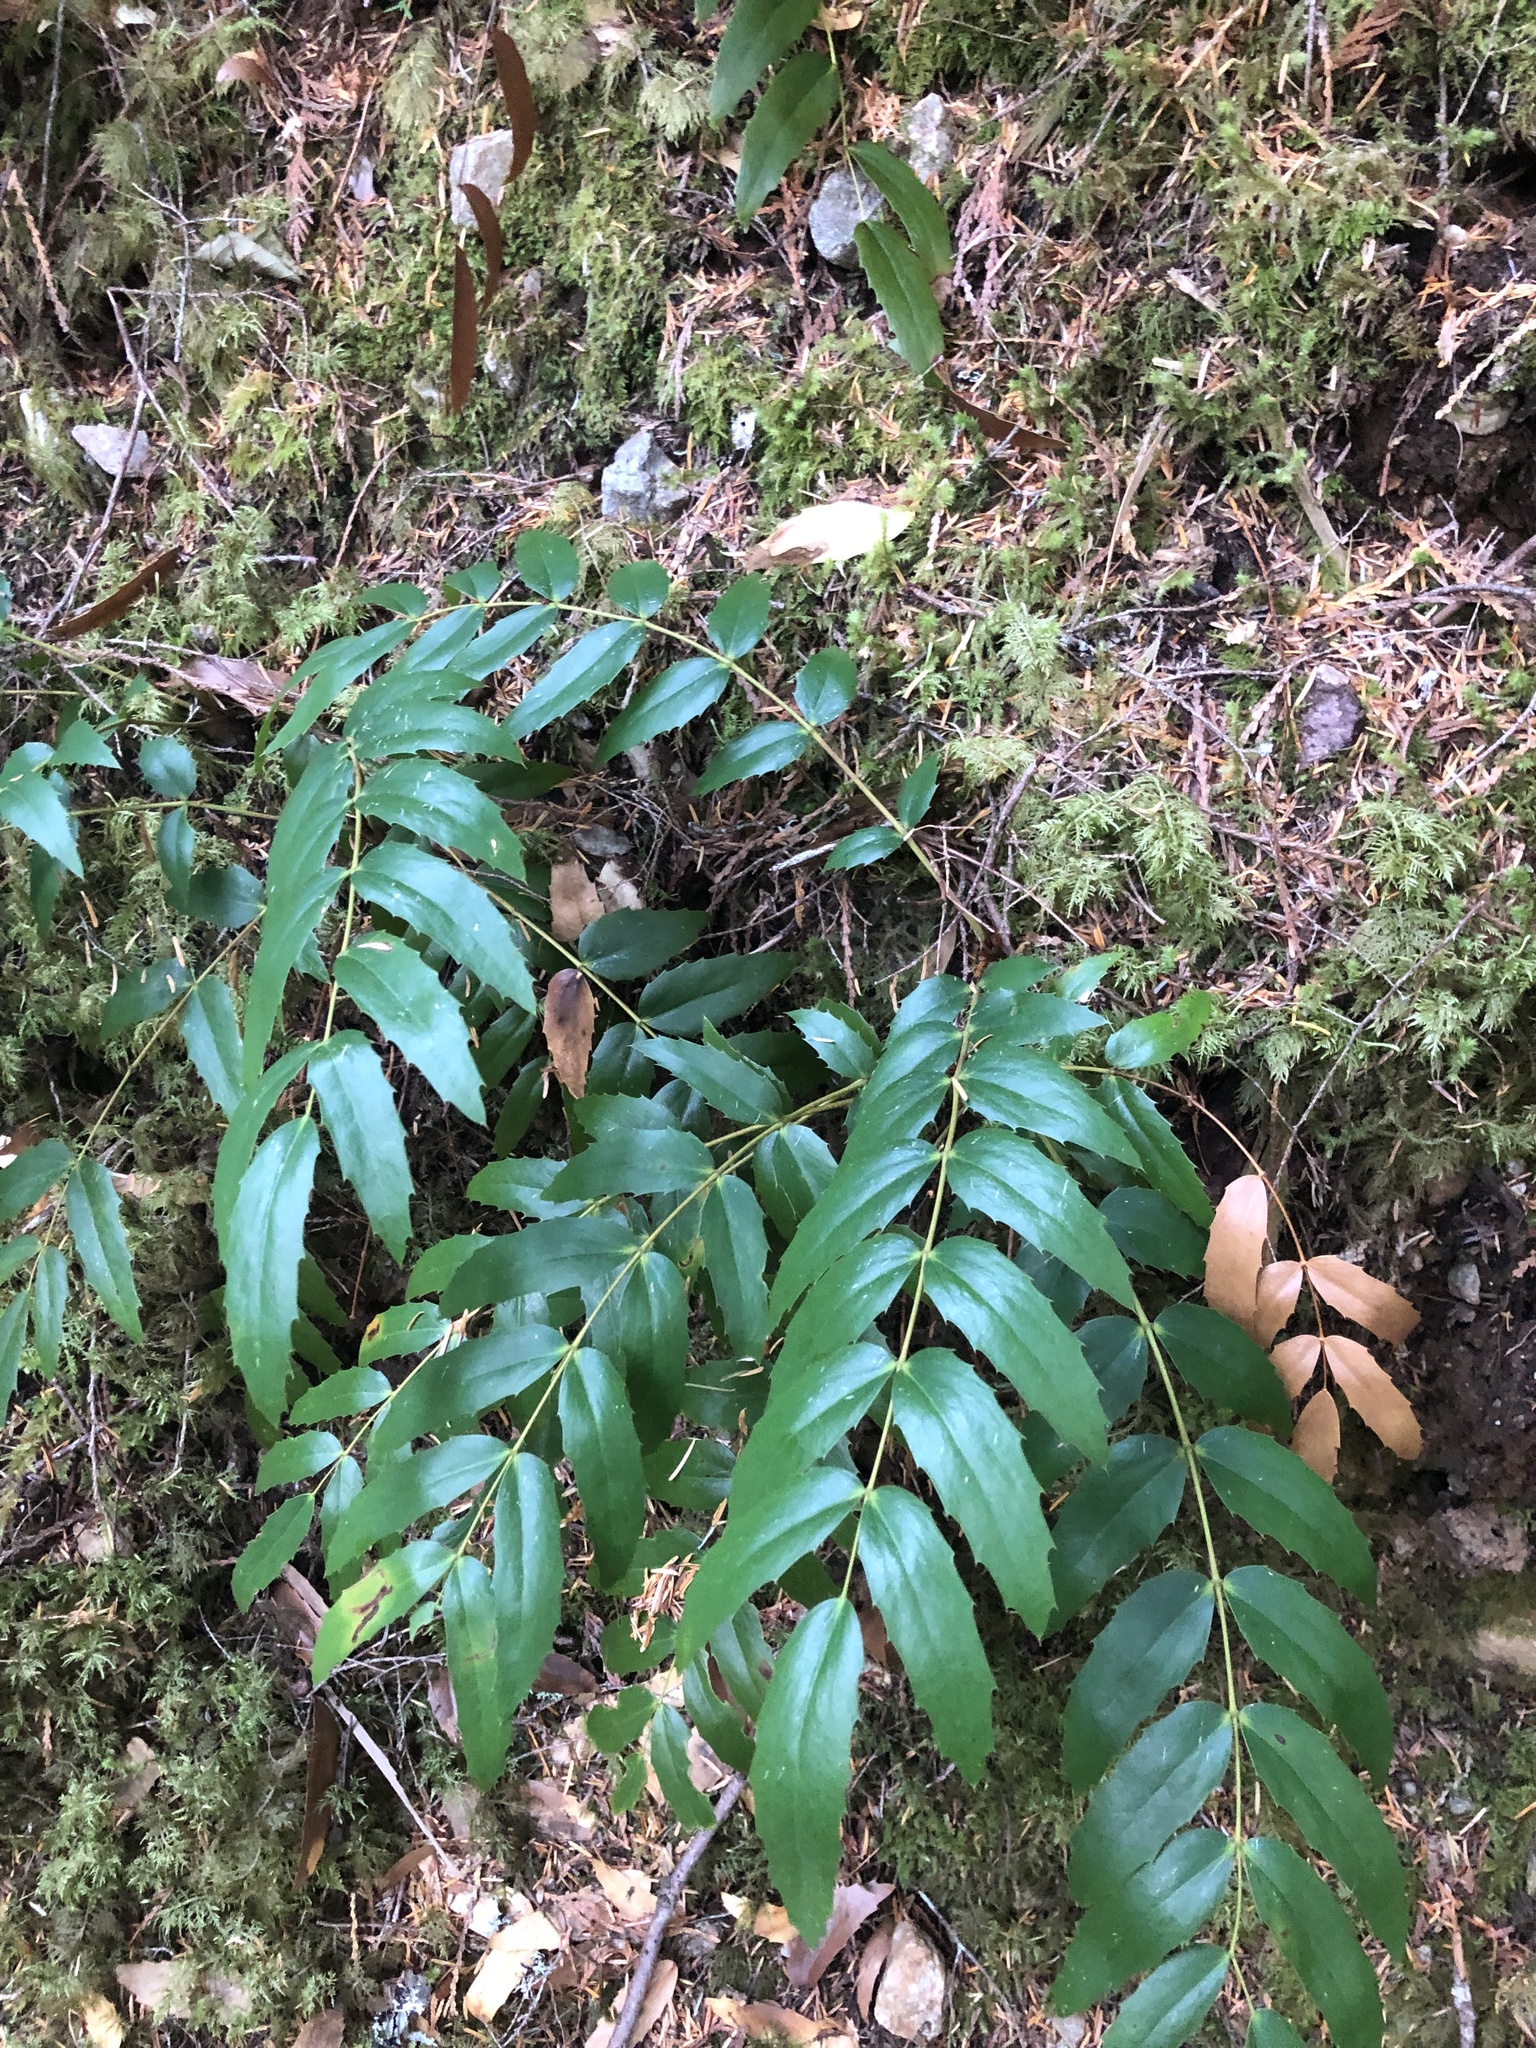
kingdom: Plantae
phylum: Tracheophyta
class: Magnoliopsida
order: Ranunculales
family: Berberidaceae
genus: Mahonia
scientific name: Mahonia nervosa
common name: Cascade oregon-grape
